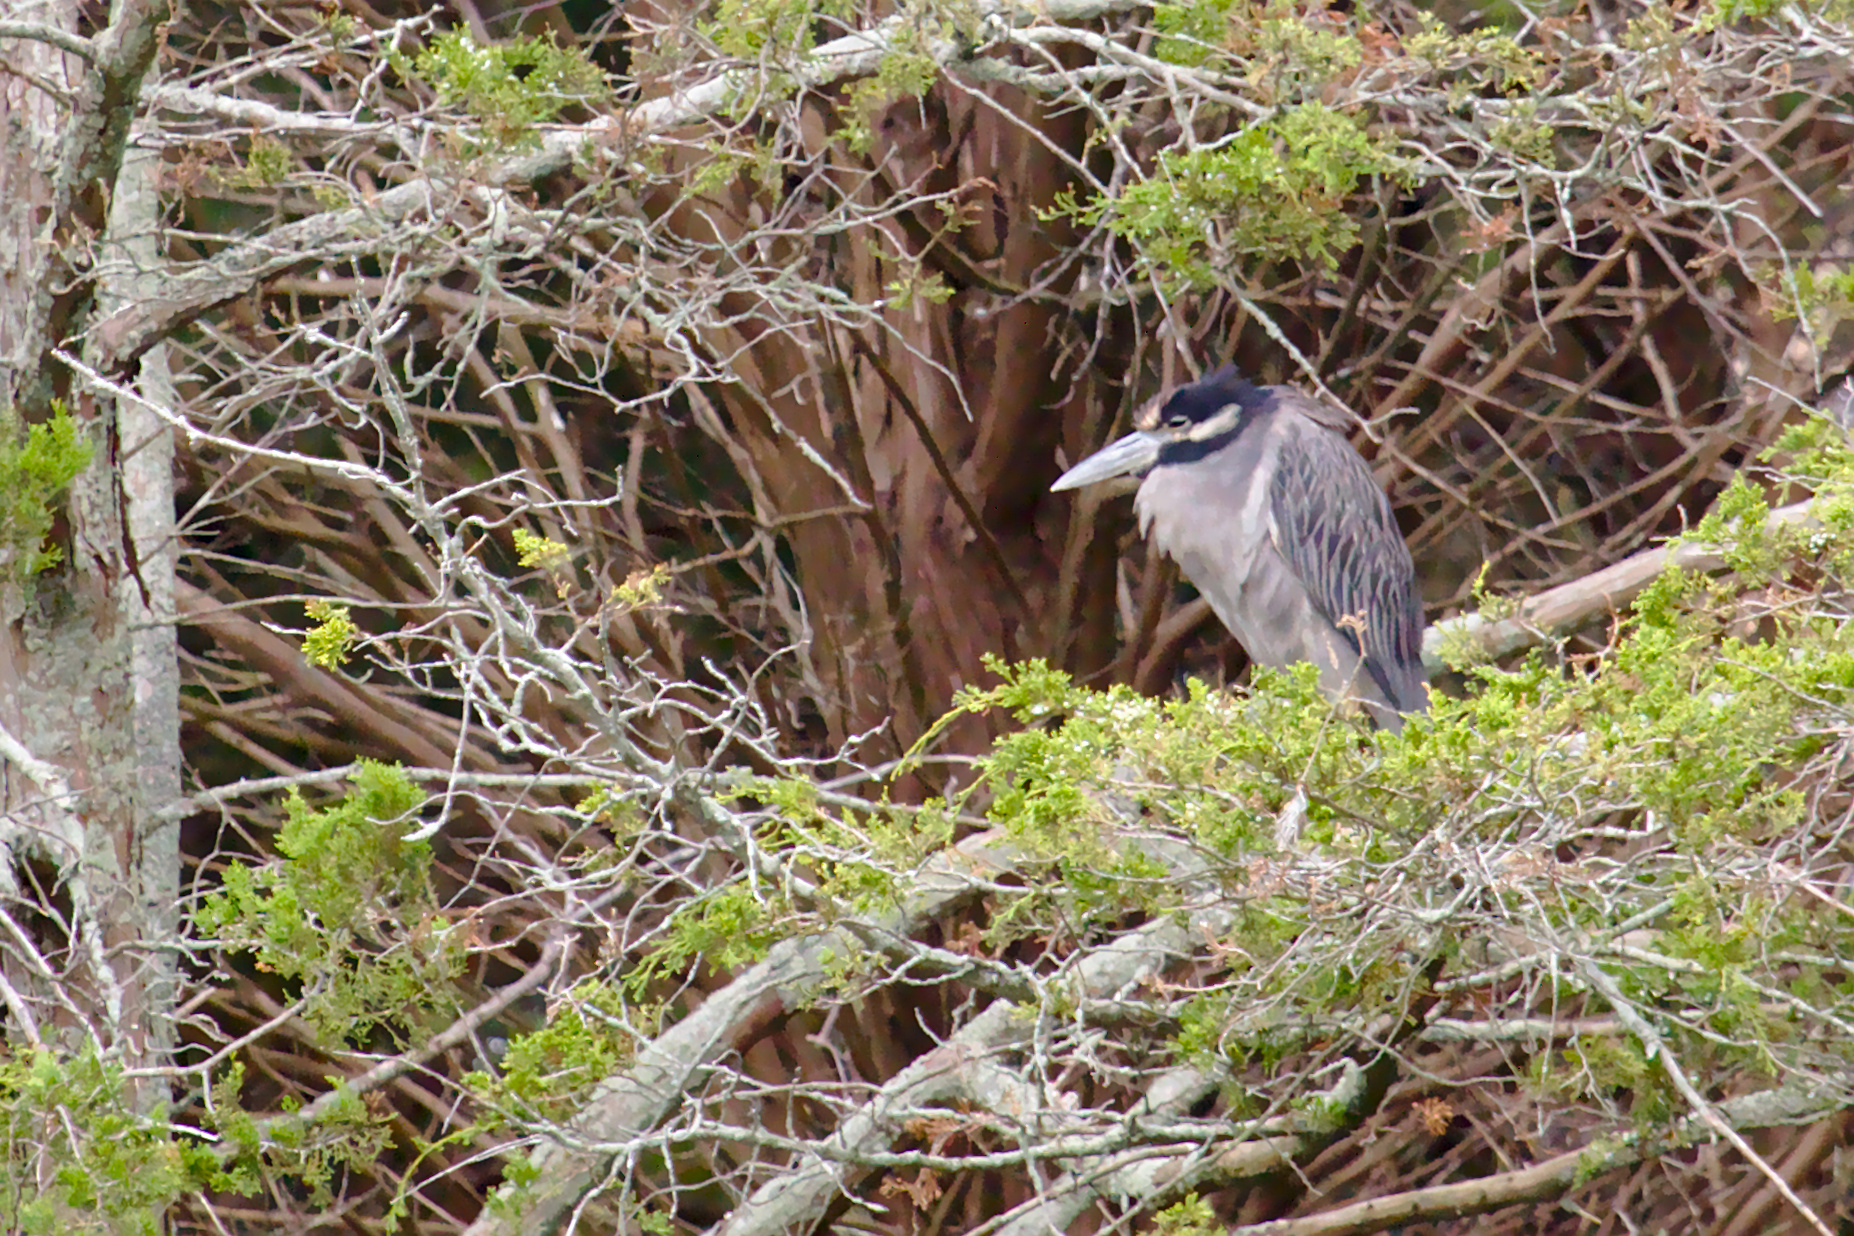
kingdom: Animalia
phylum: Chordata
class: Aves
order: Pelecaniformes
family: Ardeidae
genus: Nyctanassa
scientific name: Nyctanassa violacea
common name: Yellow-crowned night heron
